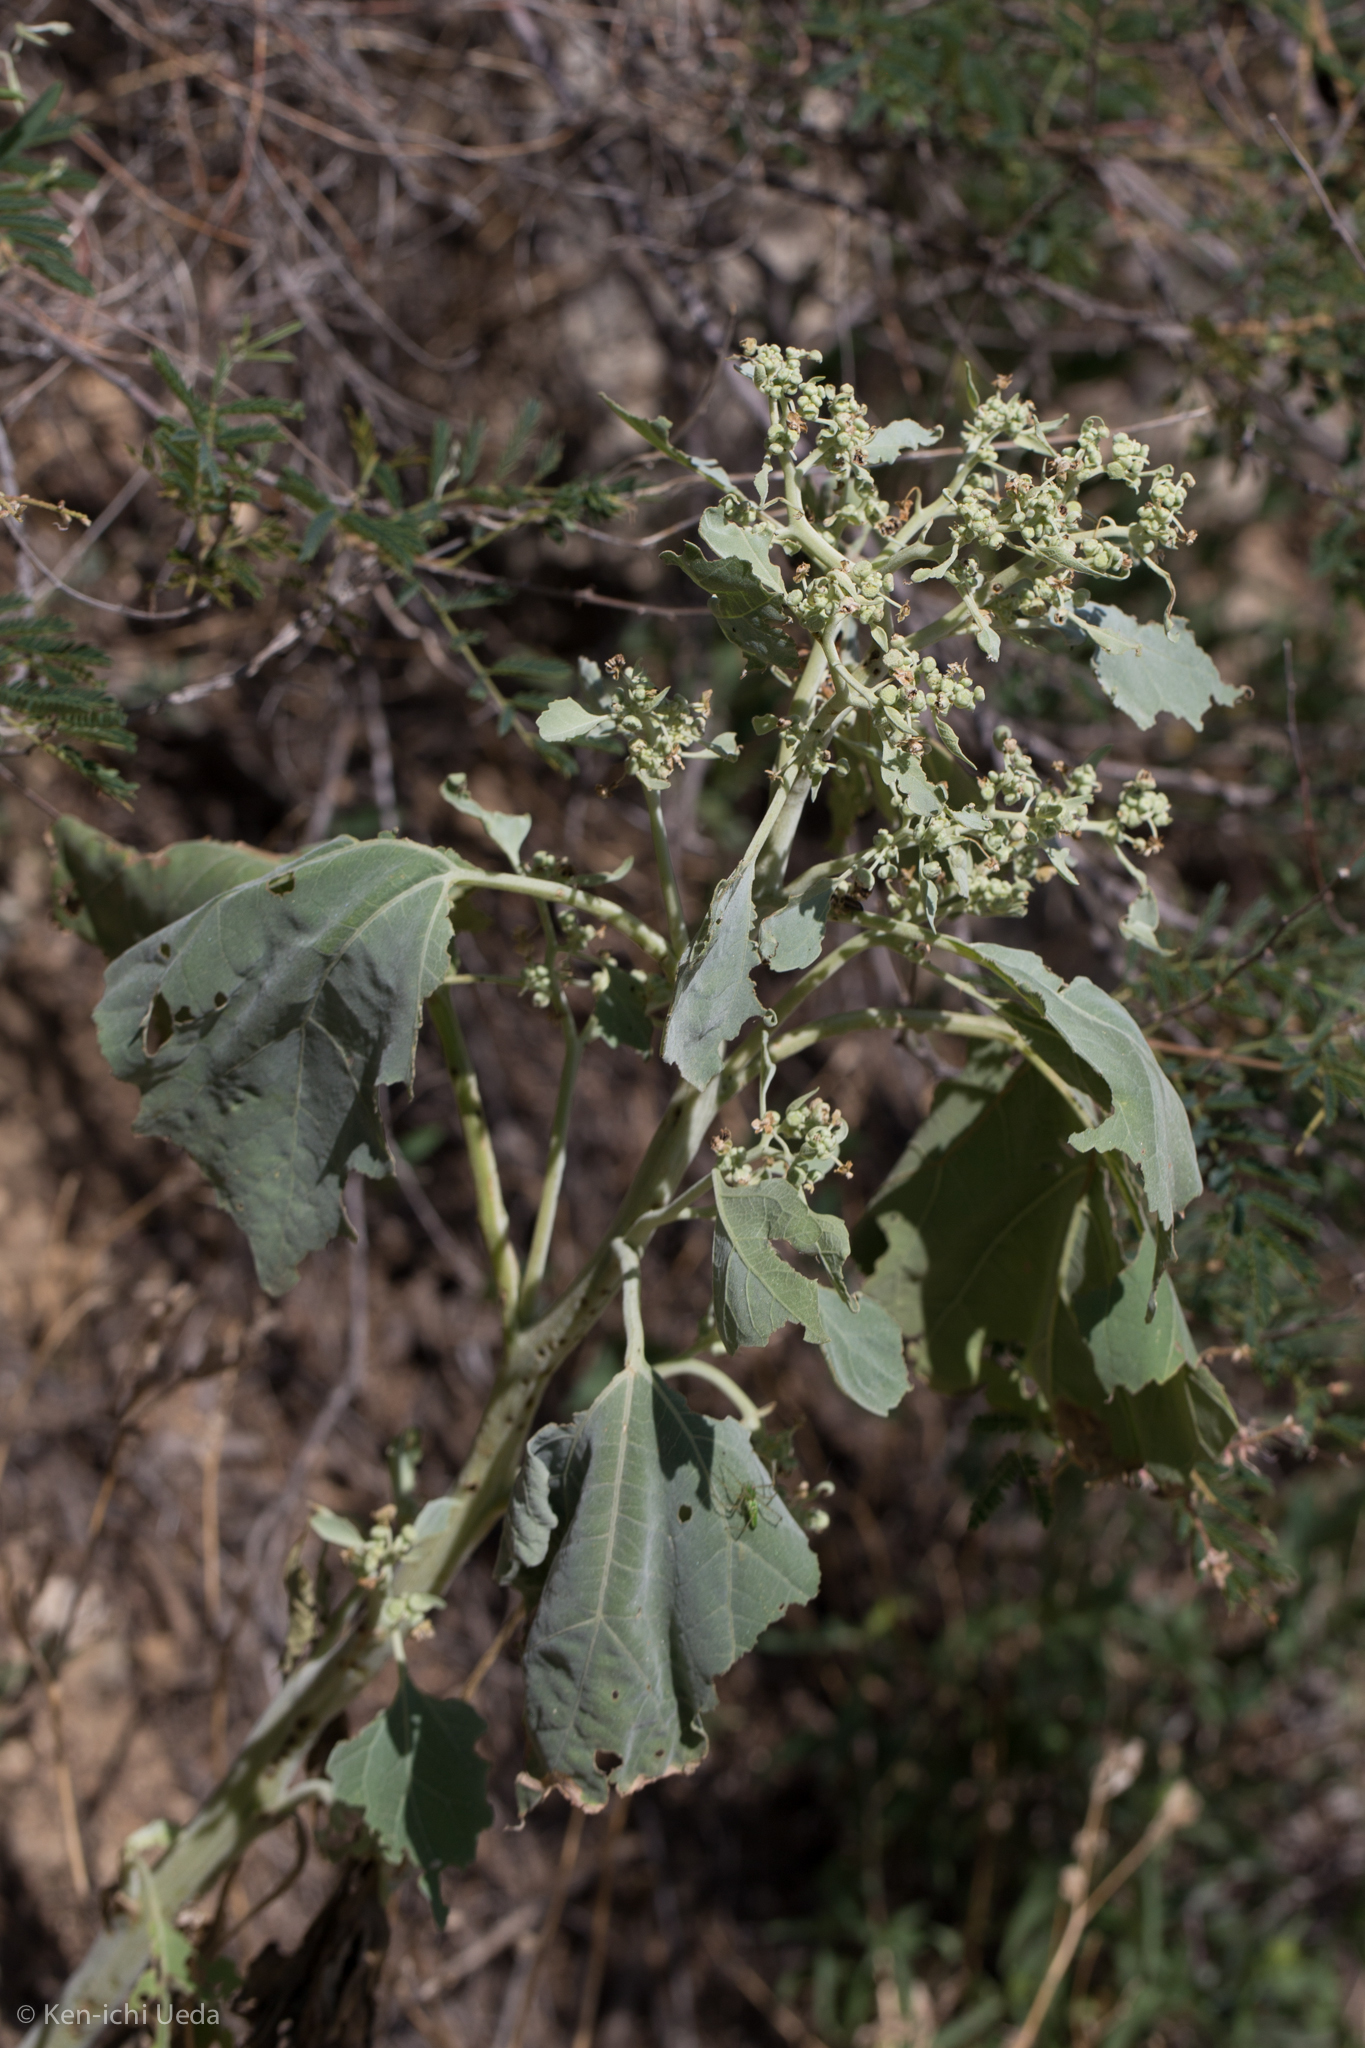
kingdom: Plantae
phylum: Tracheophyta
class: Magnoliopsida
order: Asterales
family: Asteraceae
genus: Parthenice
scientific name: Parthenice mollis
